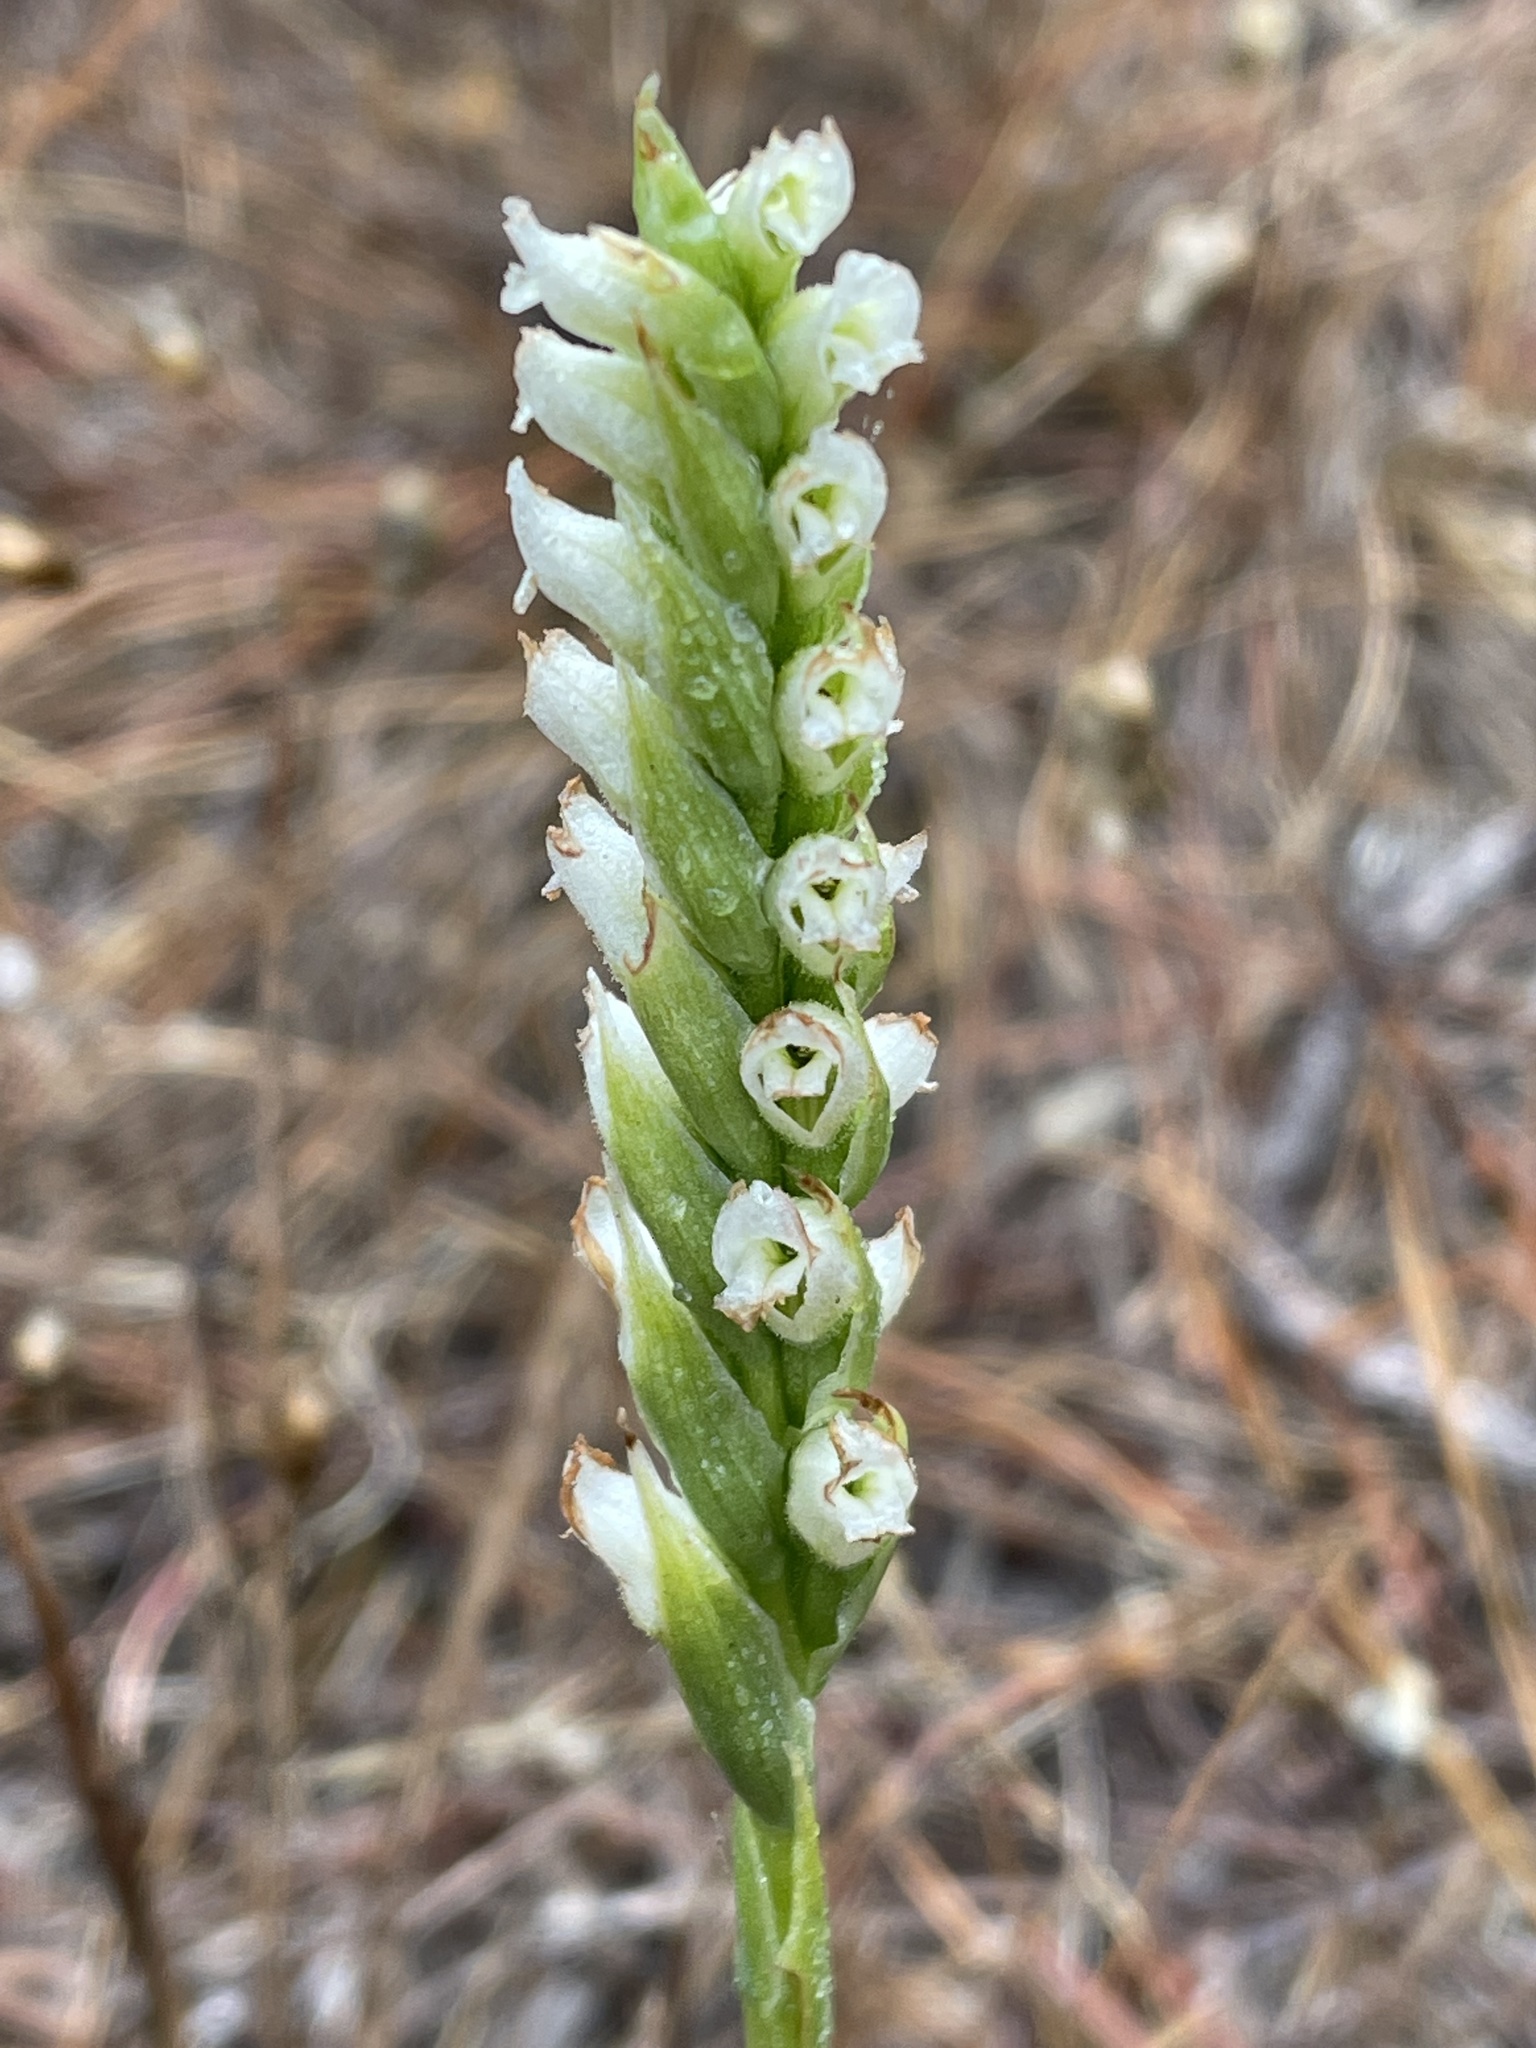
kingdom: Plantae
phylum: Tracheophyta
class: Liliopsida
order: Asparagales
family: Orchidaceae
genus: Spiranthes
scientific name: Spiranthes romanzoffiana
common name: Irish lady's-tresses
